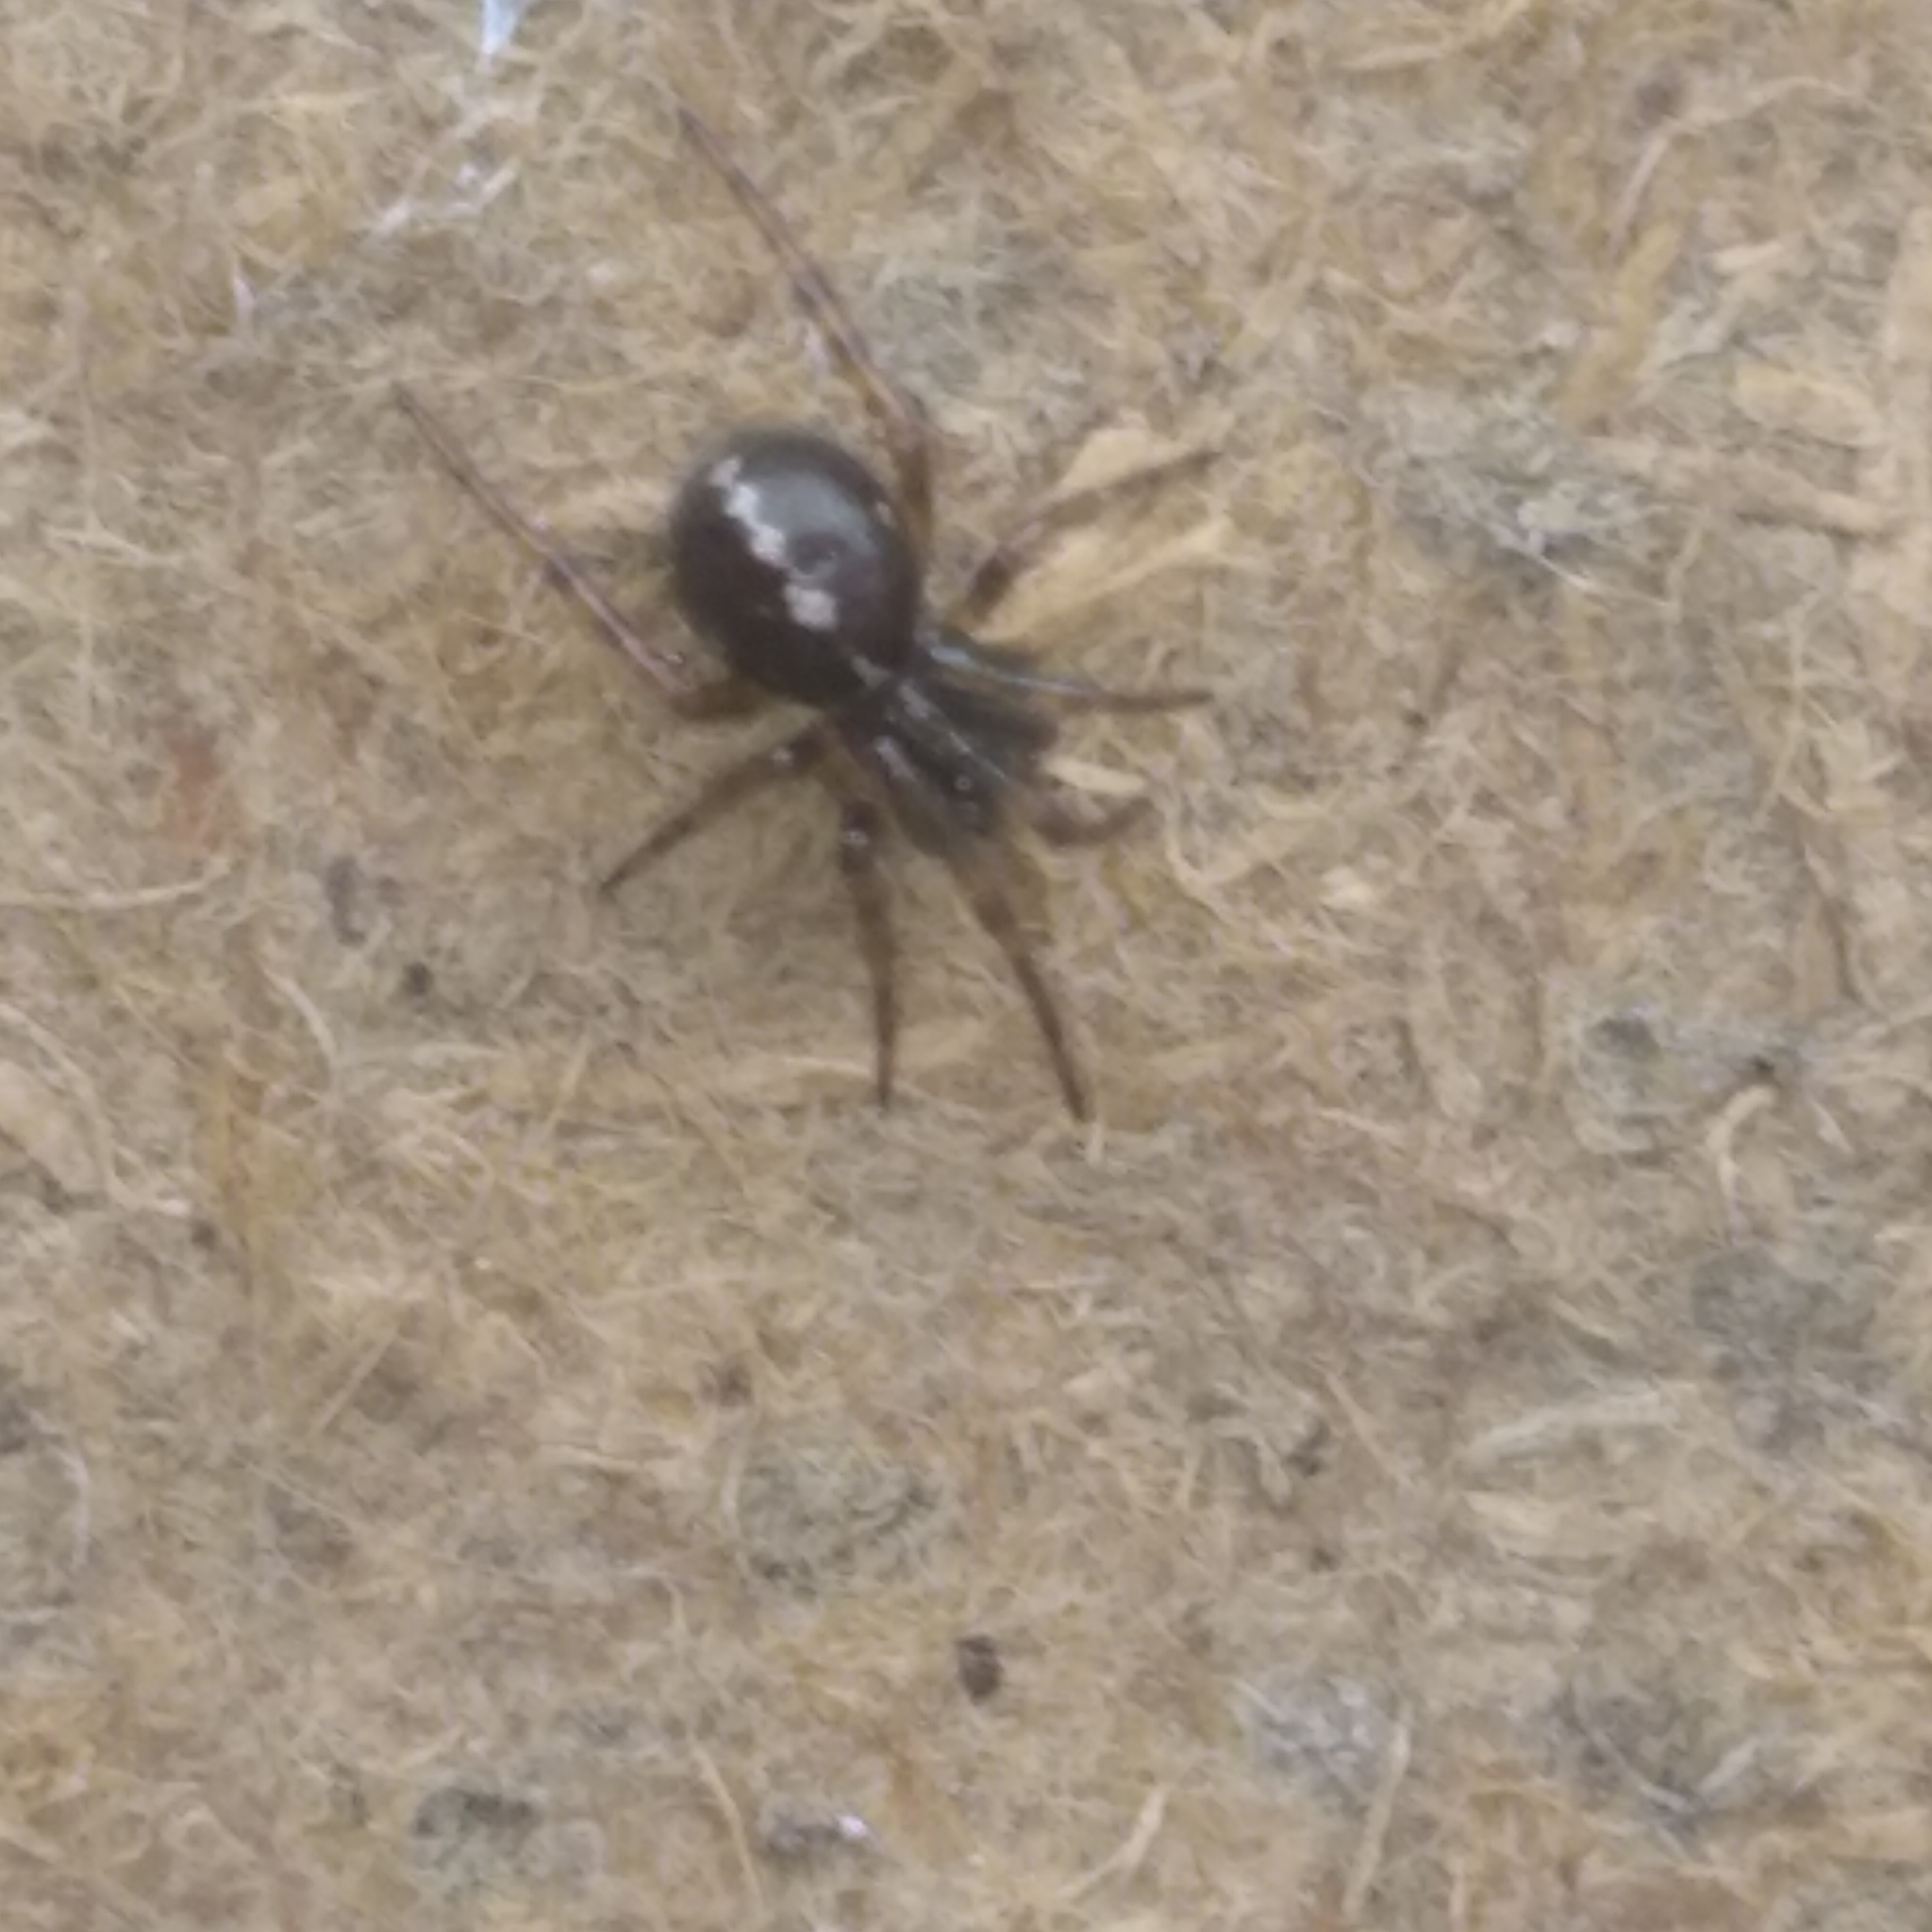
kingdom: Animalia
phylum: Arthropoda
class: Arachnida
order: Araneae
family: Theridiidae
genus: Steatoda
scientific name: Steatoda bipunctata
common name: False widow
